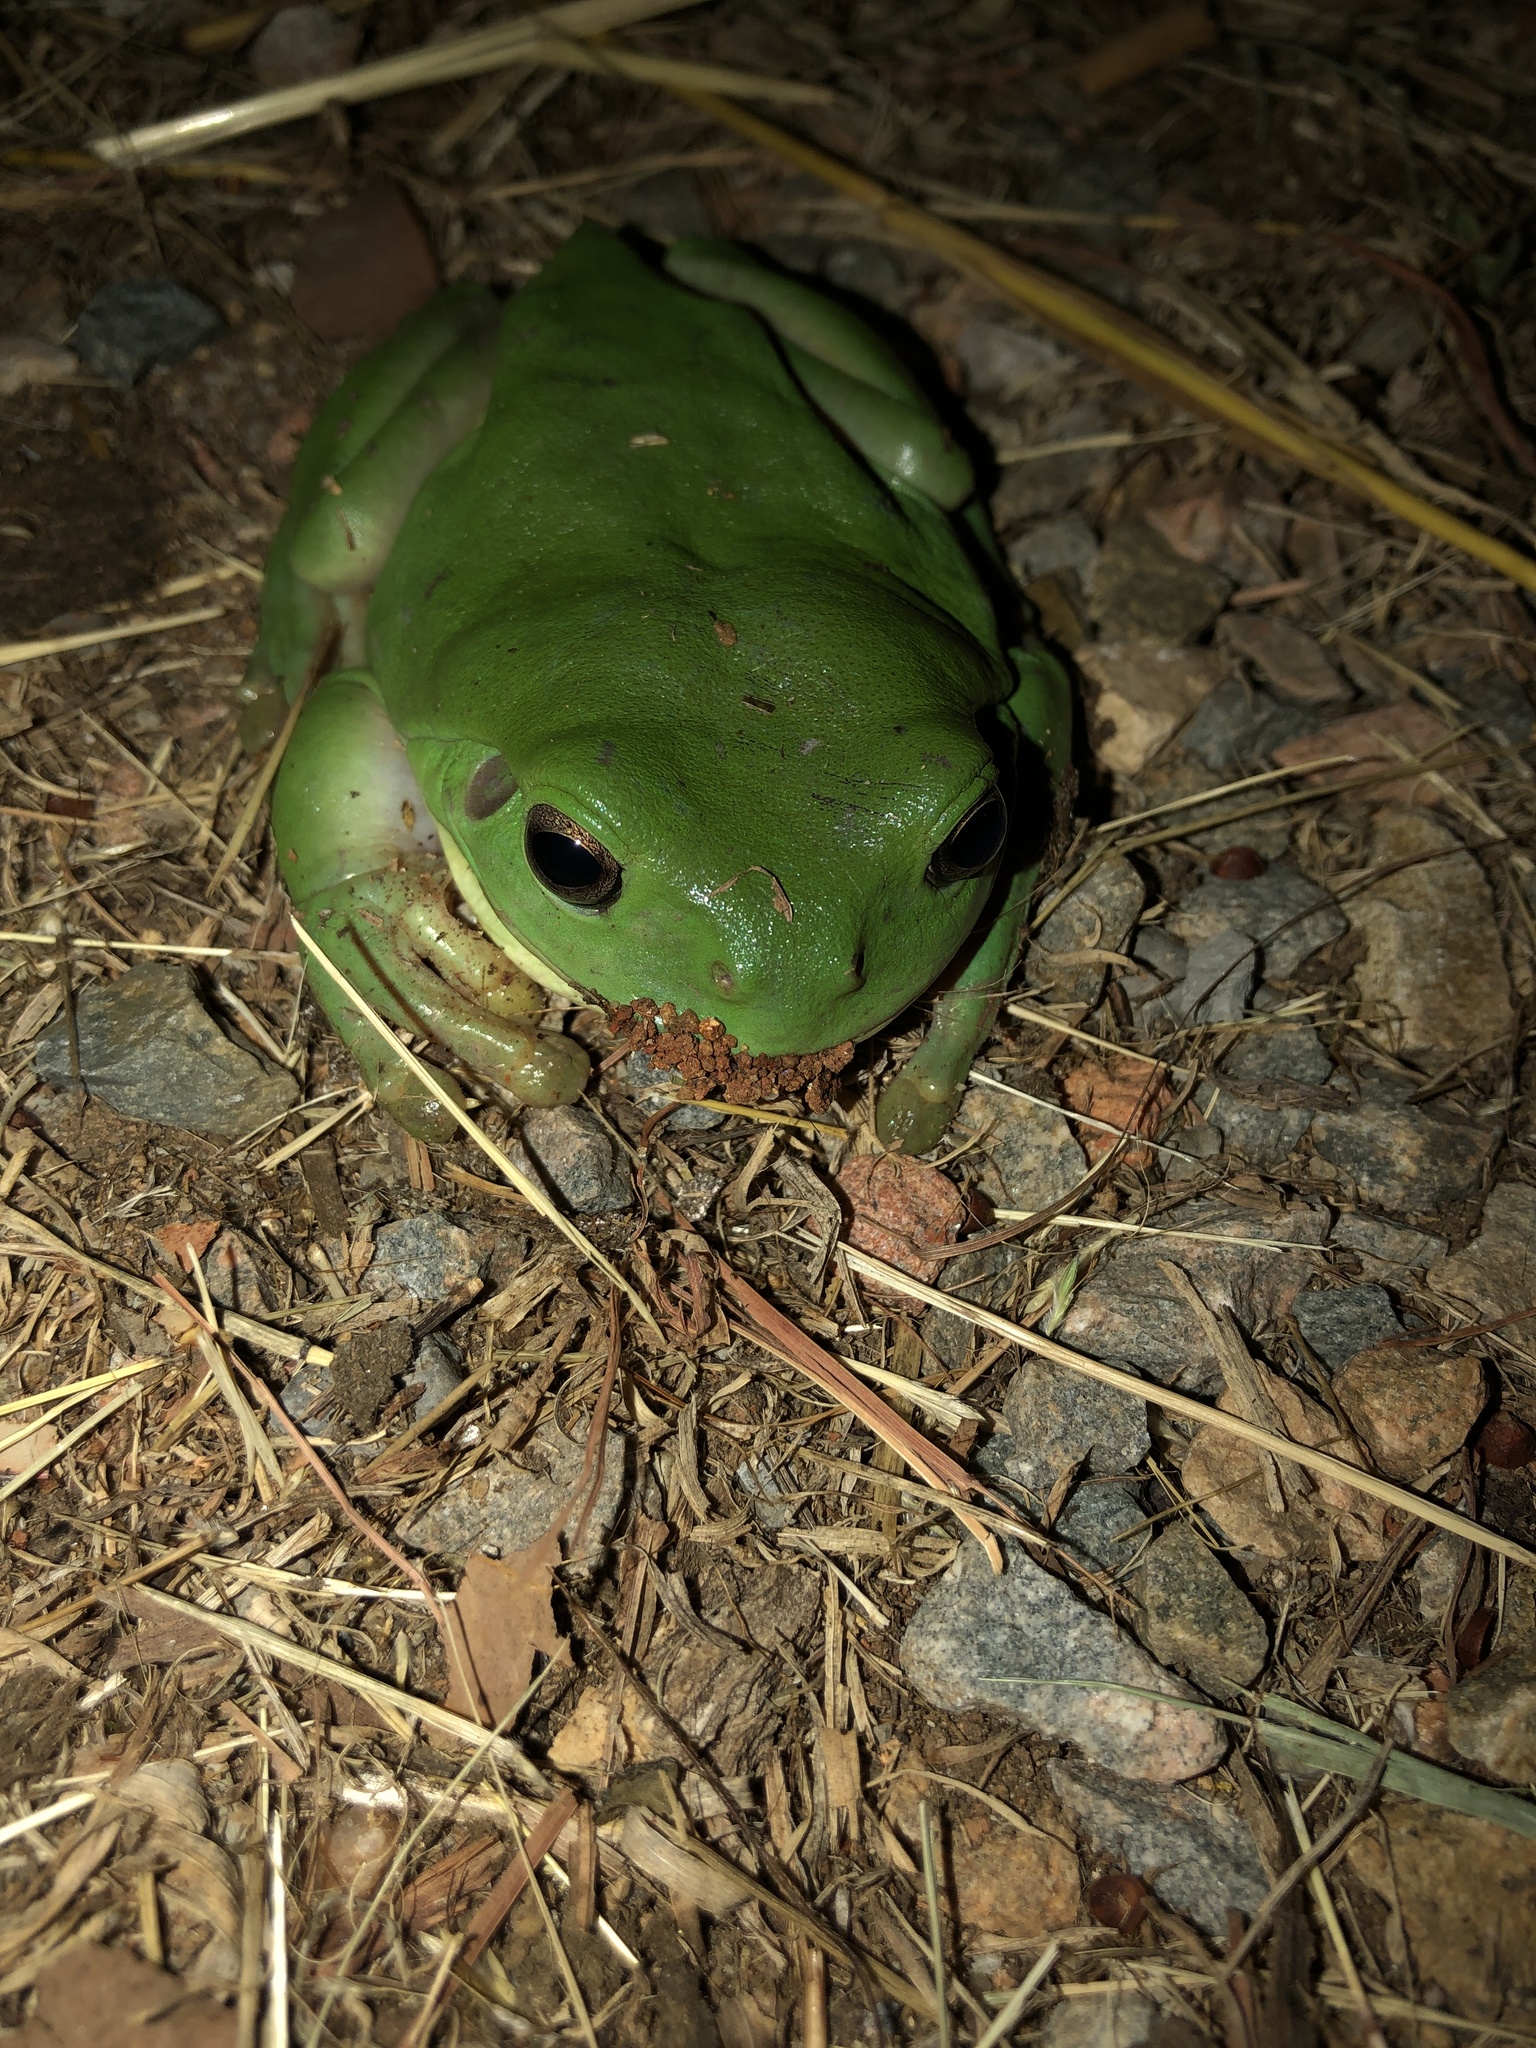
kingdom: Animalia
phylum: Chordata
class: Amphibia
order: Anura
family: Pelodryadidae
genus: Ranoidea
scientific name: Ranoidea caerulea
